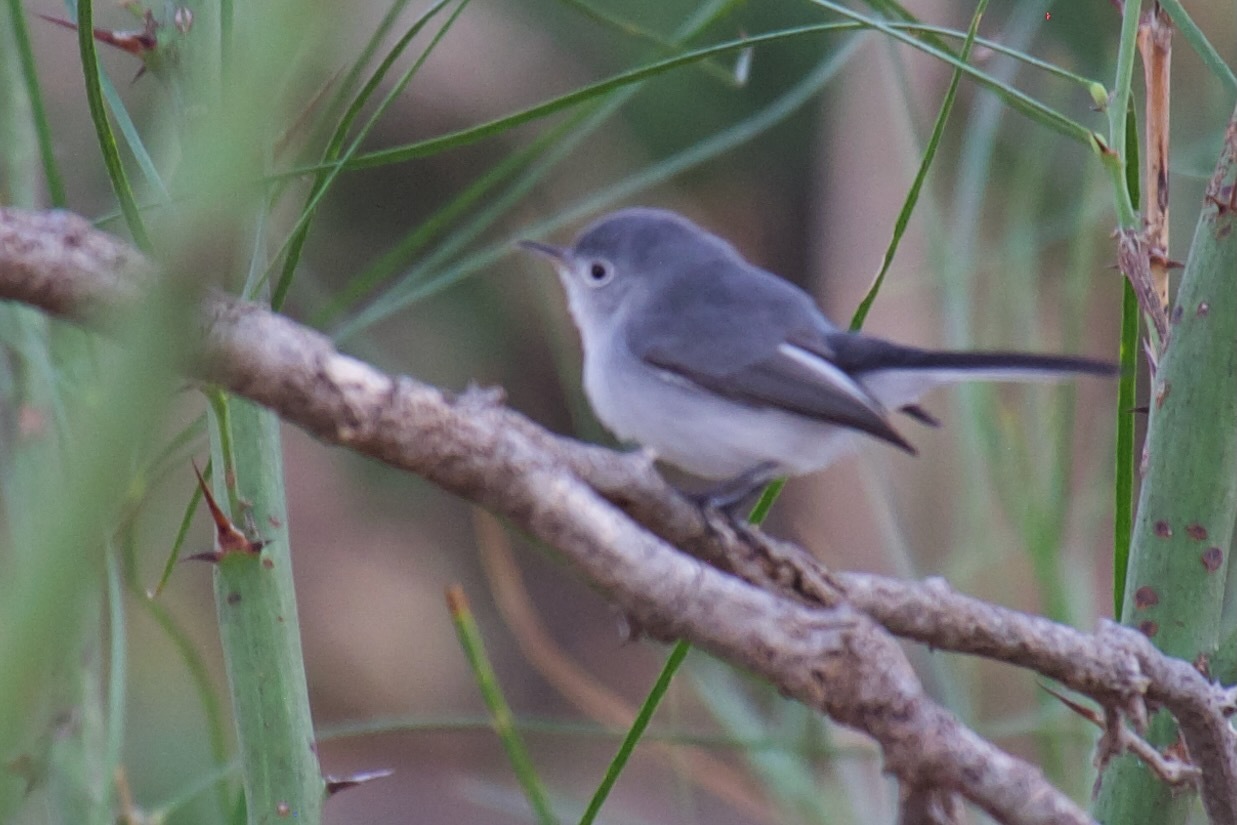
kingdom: Animalia
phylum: Chordata
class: Aves
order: Passeriformes
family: Polioptilidae
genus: Polioptila
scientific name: Polioptila caerulea
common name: Blue-gray gnatcatcher
